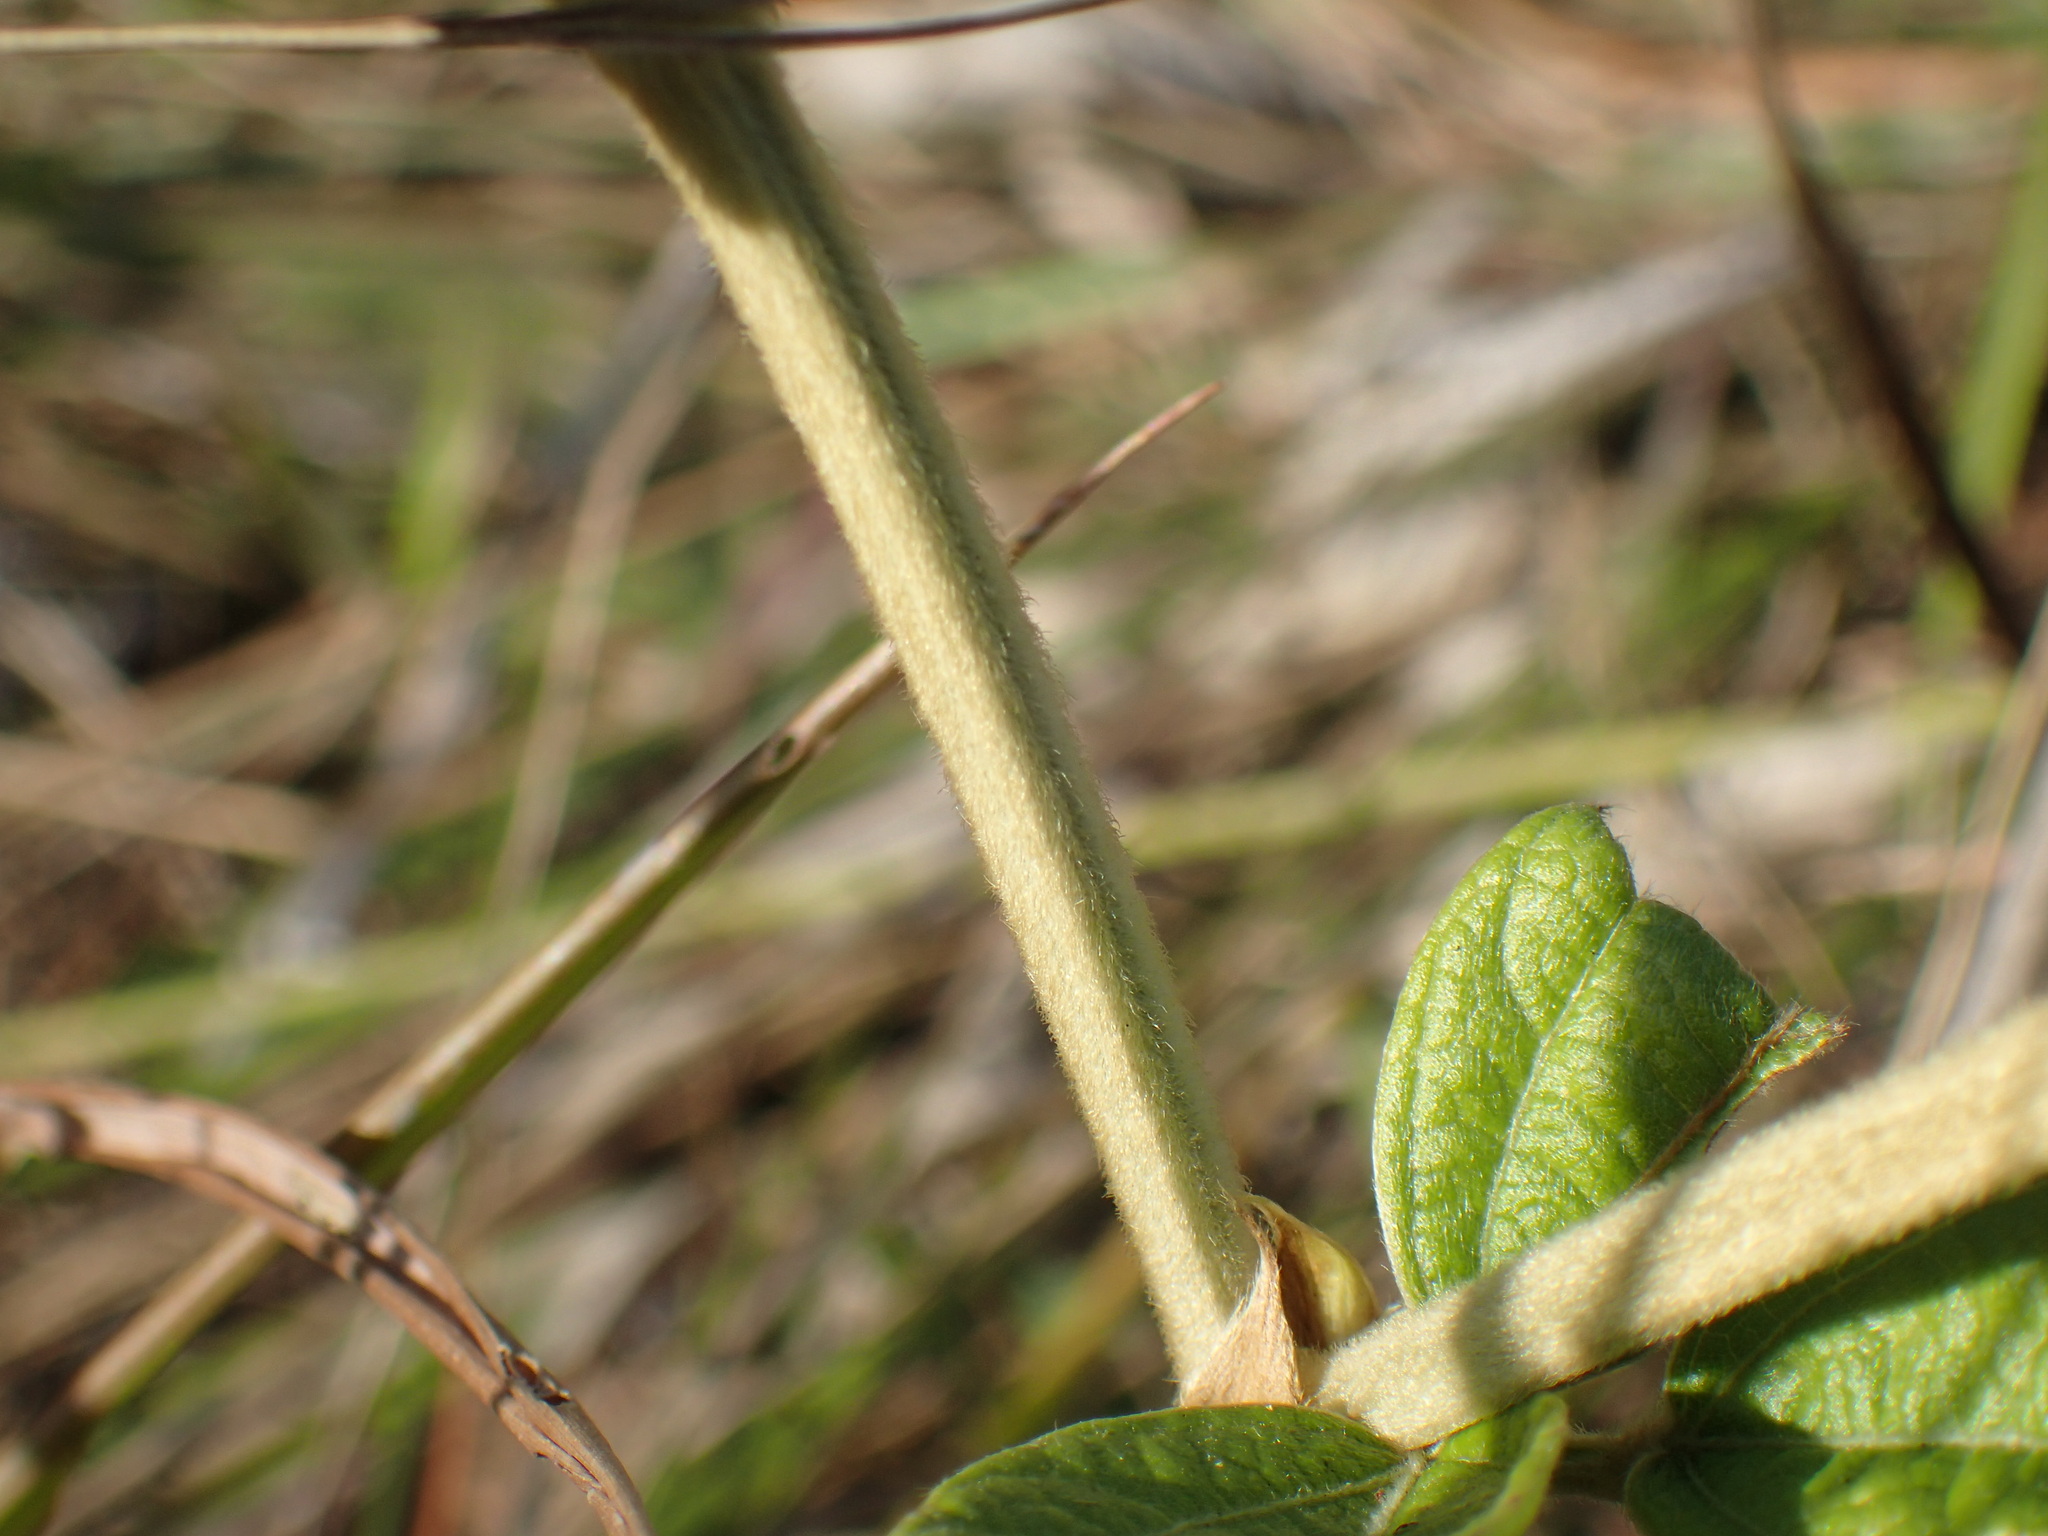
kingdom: Plantae
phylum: Tracheophyta
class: Magnoliopsida
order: Fabales
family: Fabaceae
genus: Eriosema
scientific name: Eriosema luteopetalum
